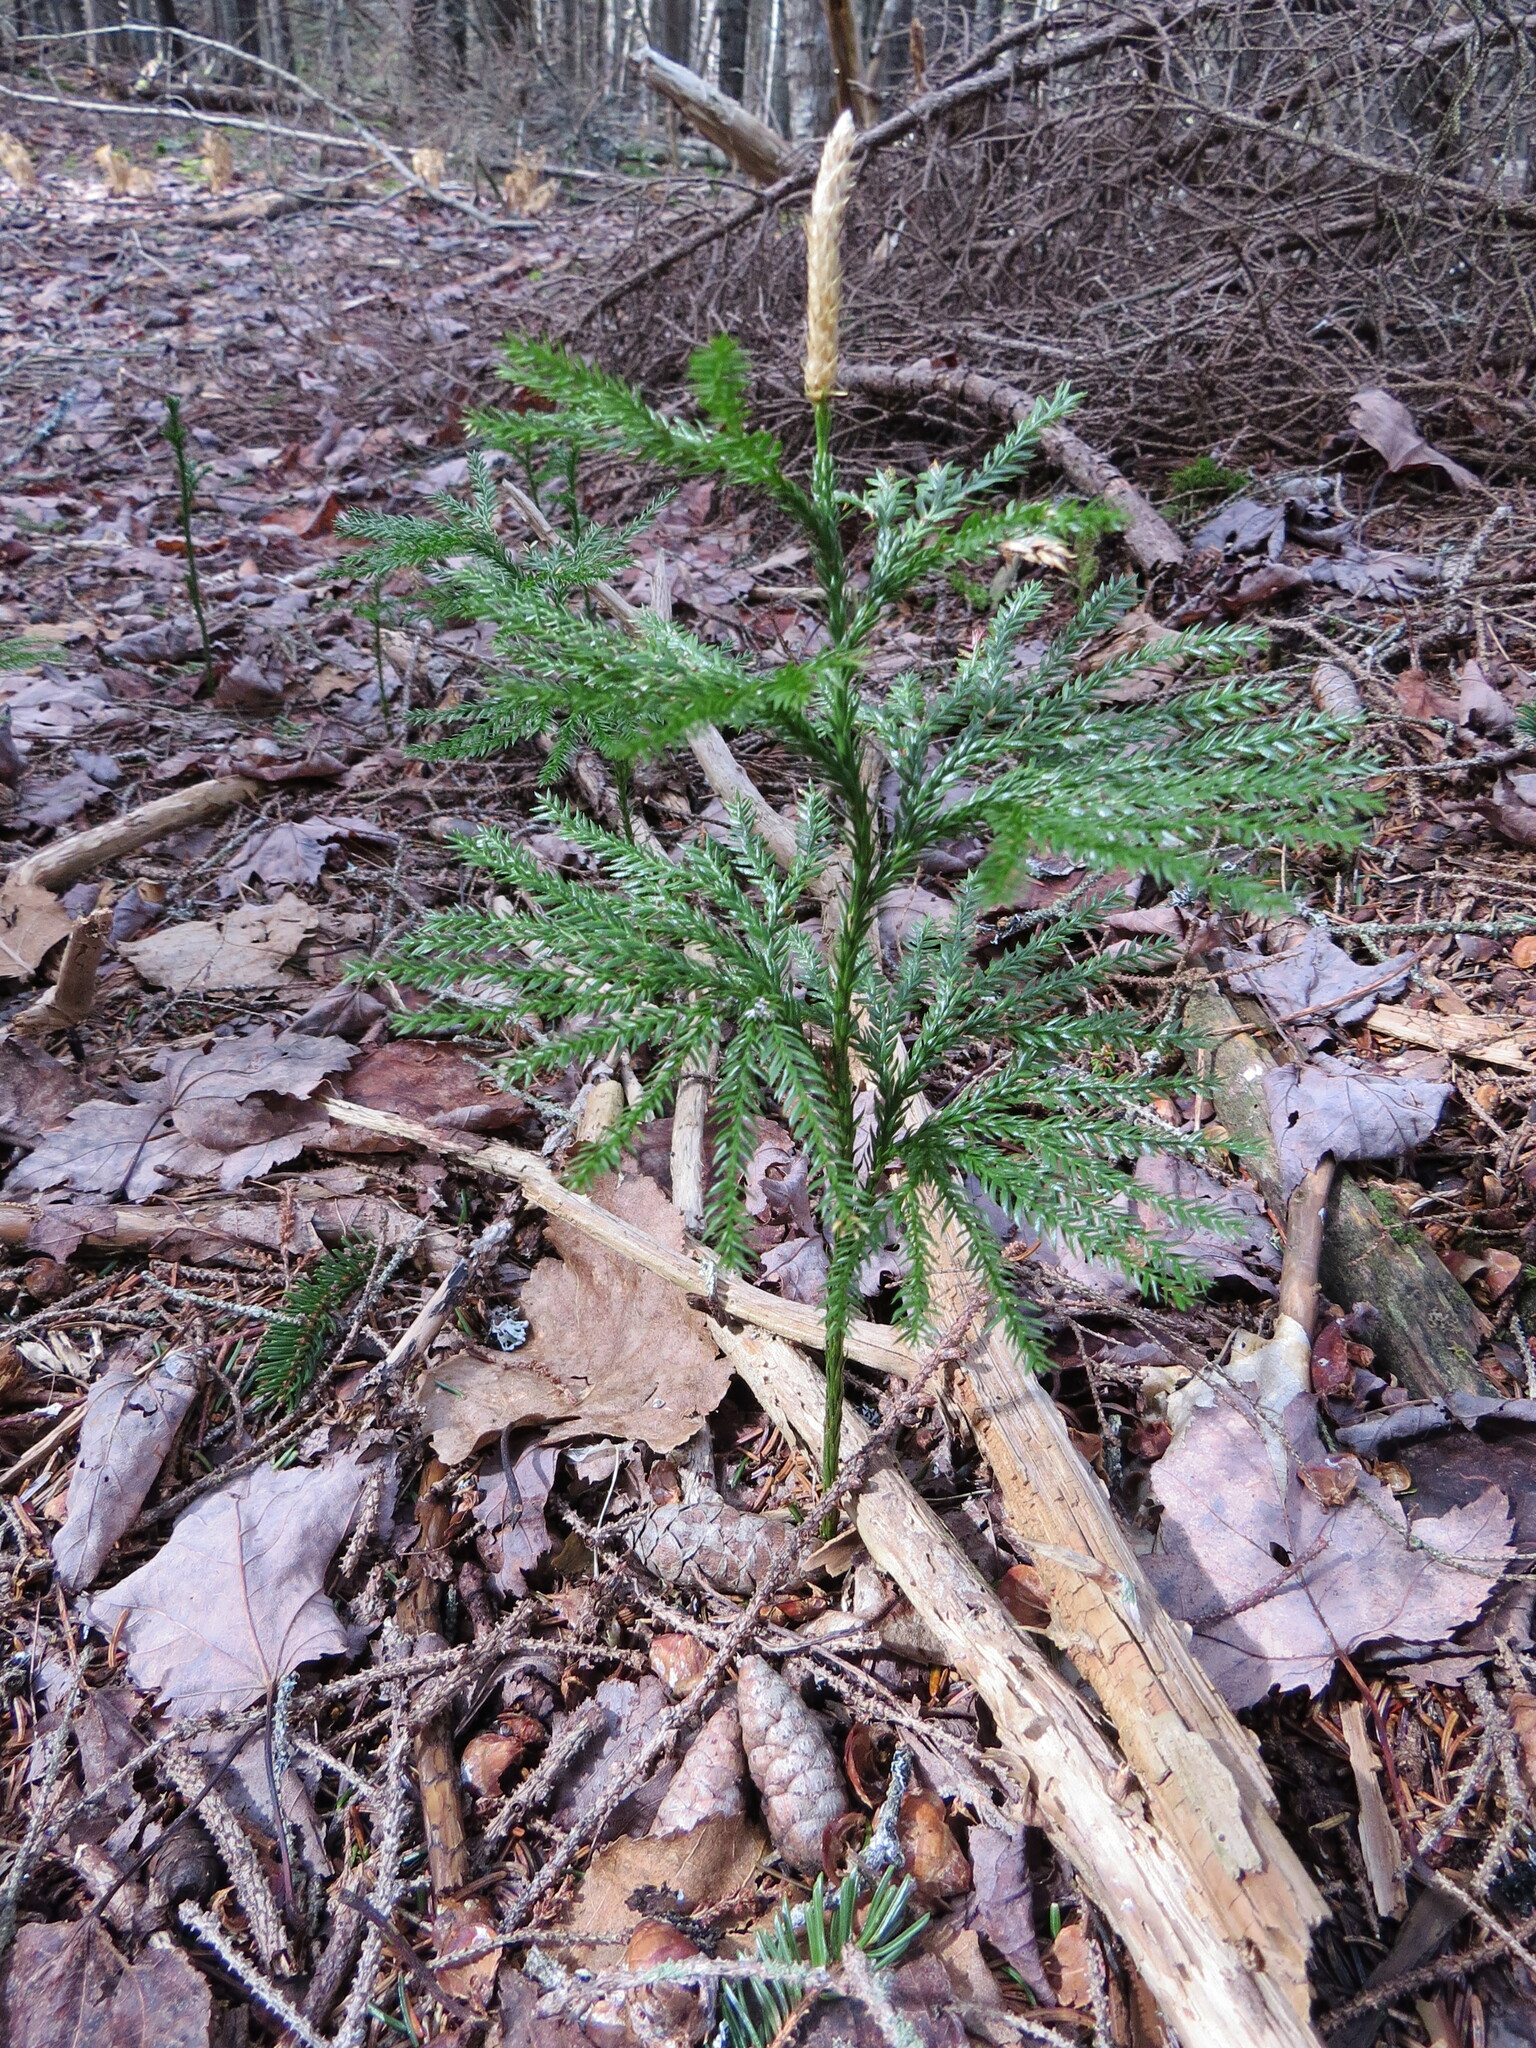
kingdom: Plantae
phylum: Tracheophyta
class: Lycopodiopsida
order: Lycopodiales
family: Lycopodiaceae
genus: Dendrolycopodium
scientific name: Dendrolycopodium obscurum
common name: Common ground-pine
